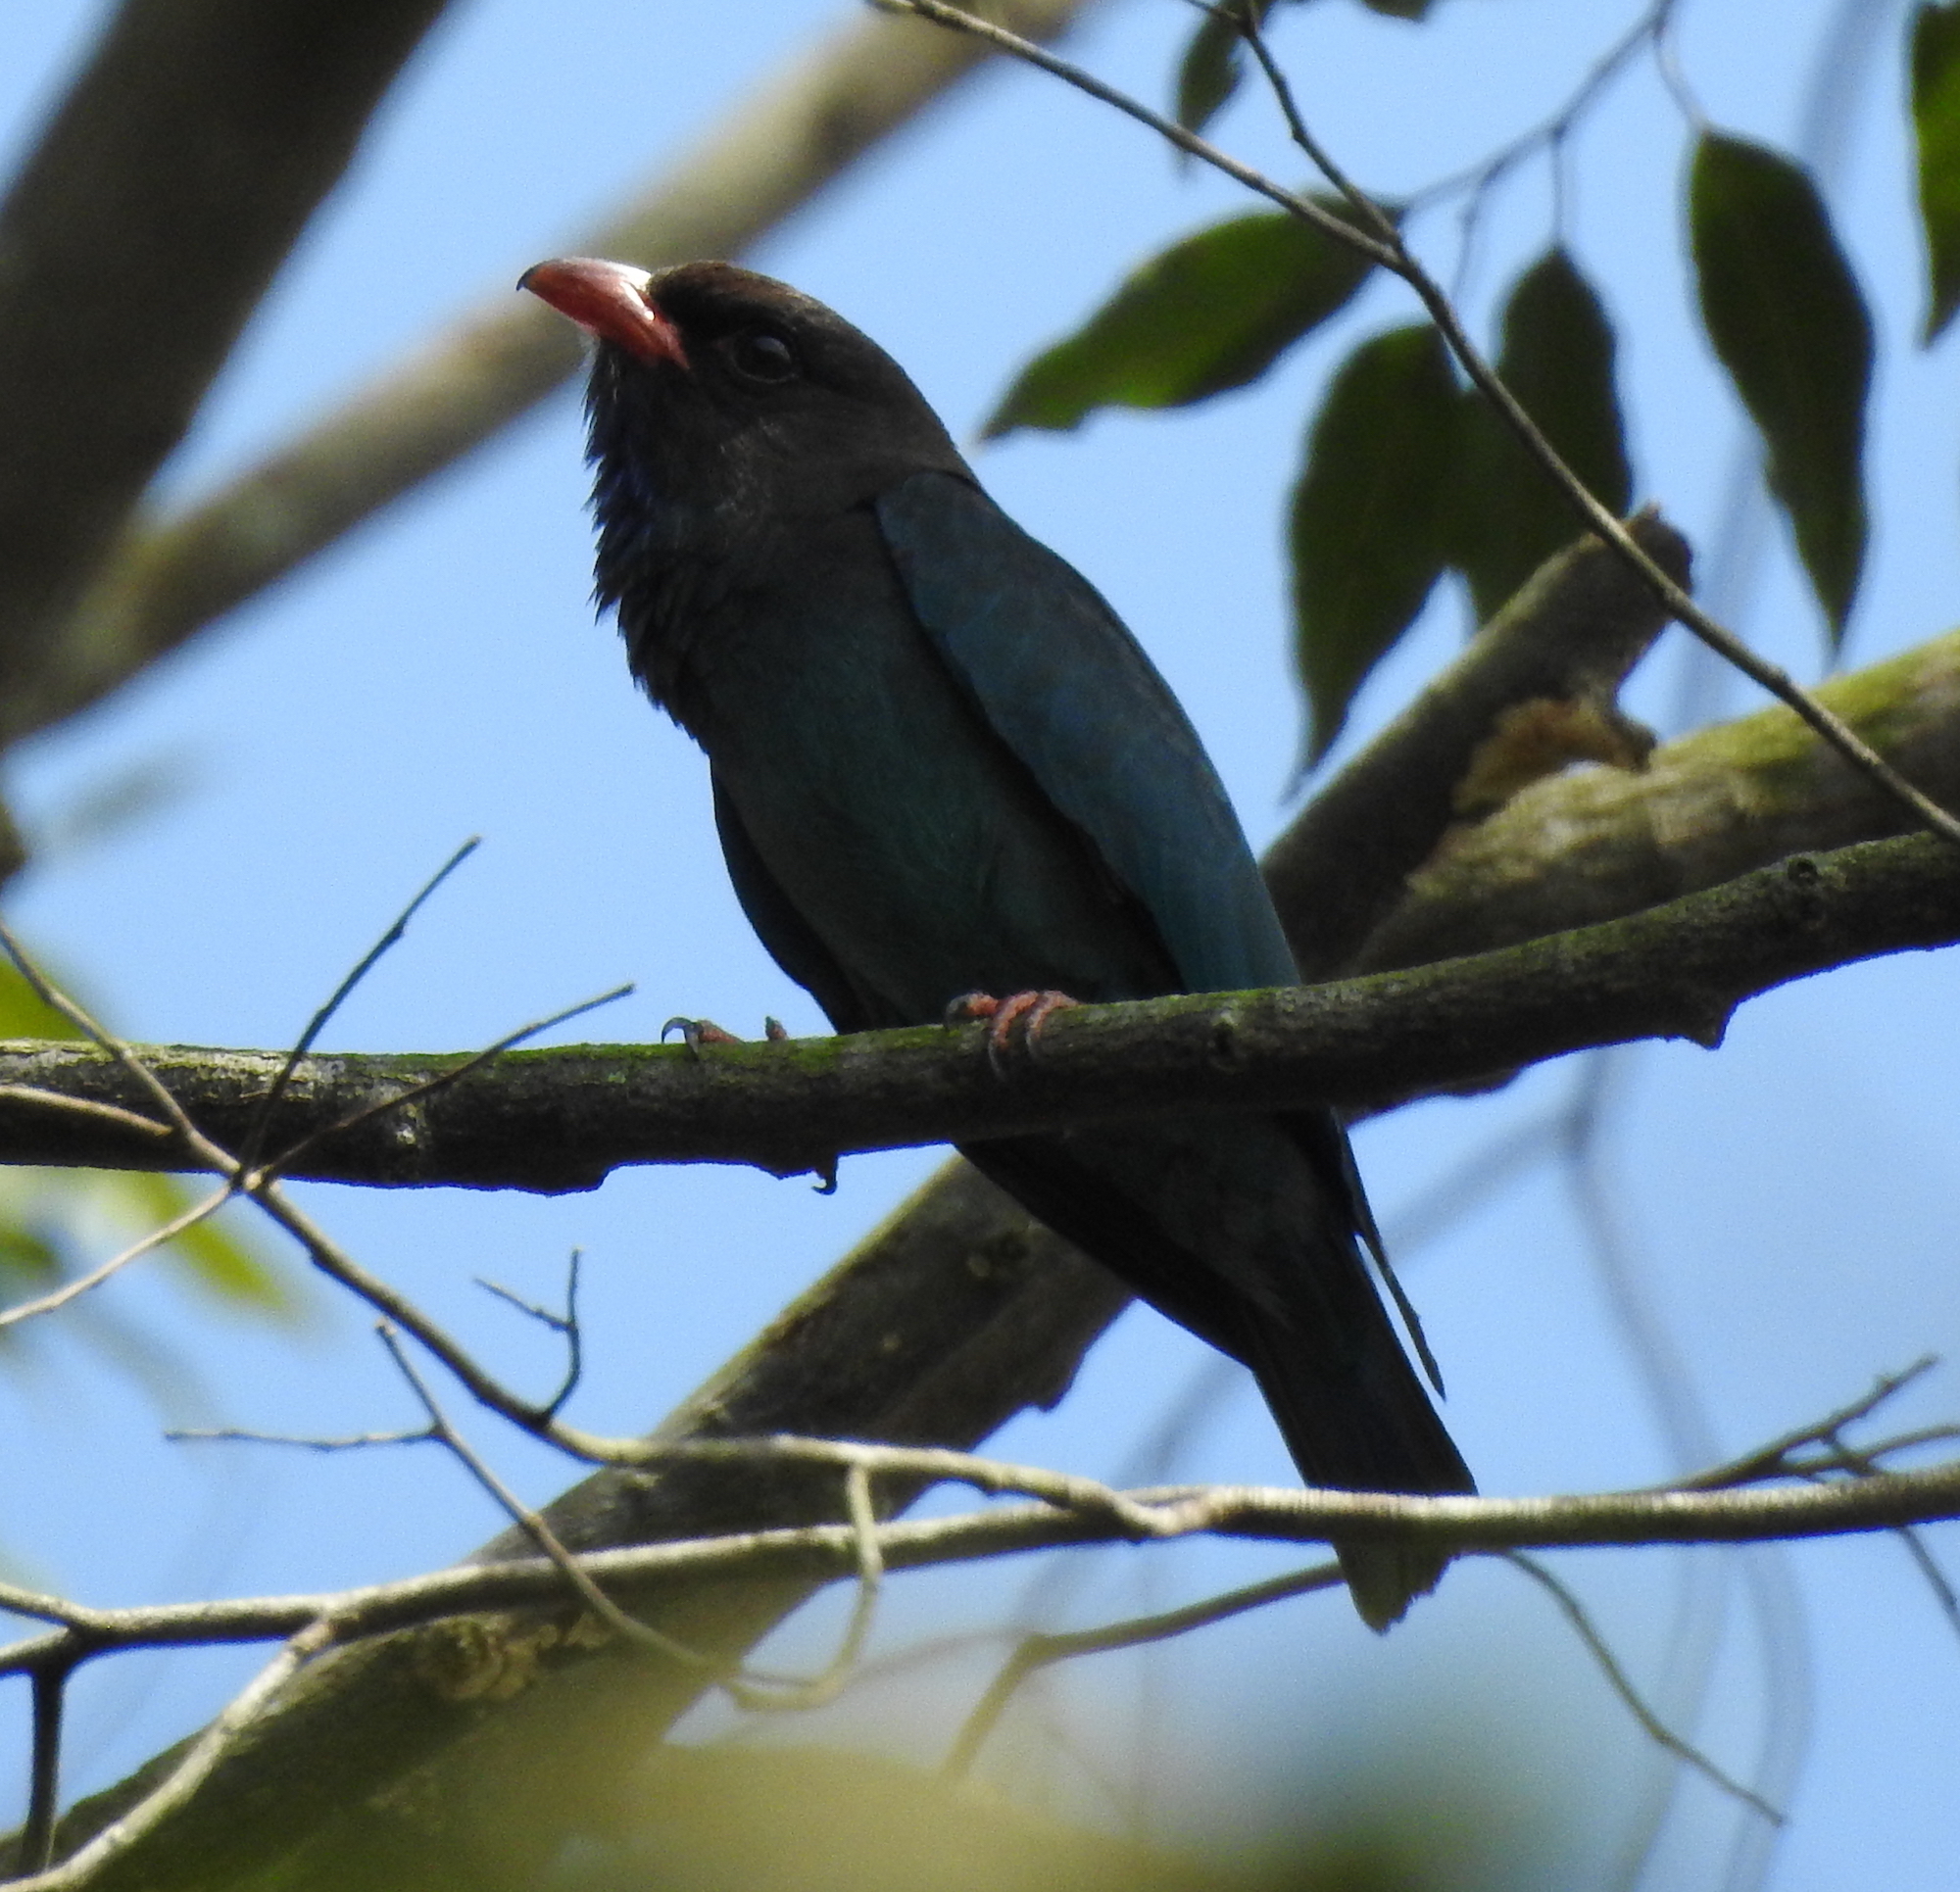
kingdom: Animalia
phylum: Chordata
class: Aves
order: Coraciiformes
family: Coraciidae
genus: Eurystomus
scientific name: Eurystomus orientalis
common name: Oriental dollarbird
